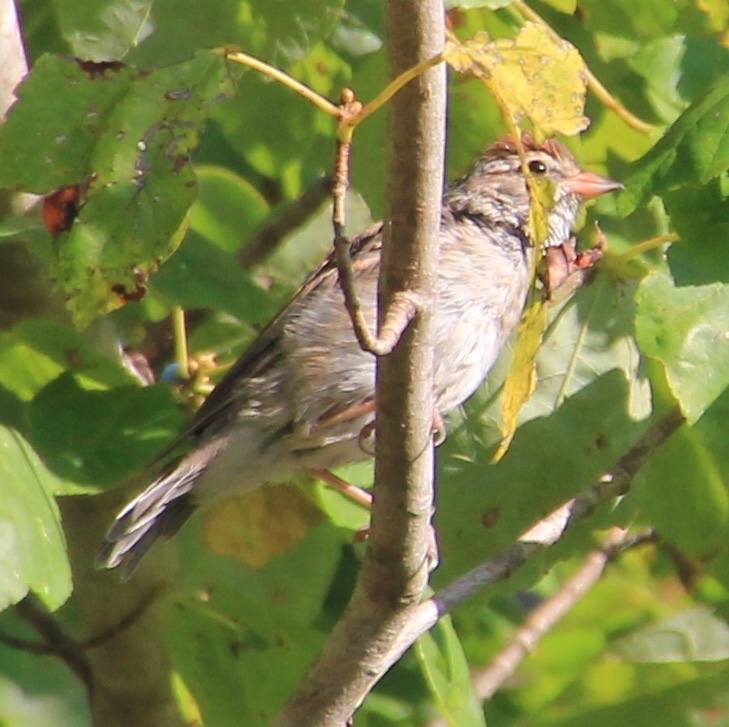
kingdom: Animalia
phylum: Chordata
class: Aves
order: Passeriformes
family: Passerellidae
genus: Spizella
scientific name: Spizella passerina
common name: Chipping sparrow
